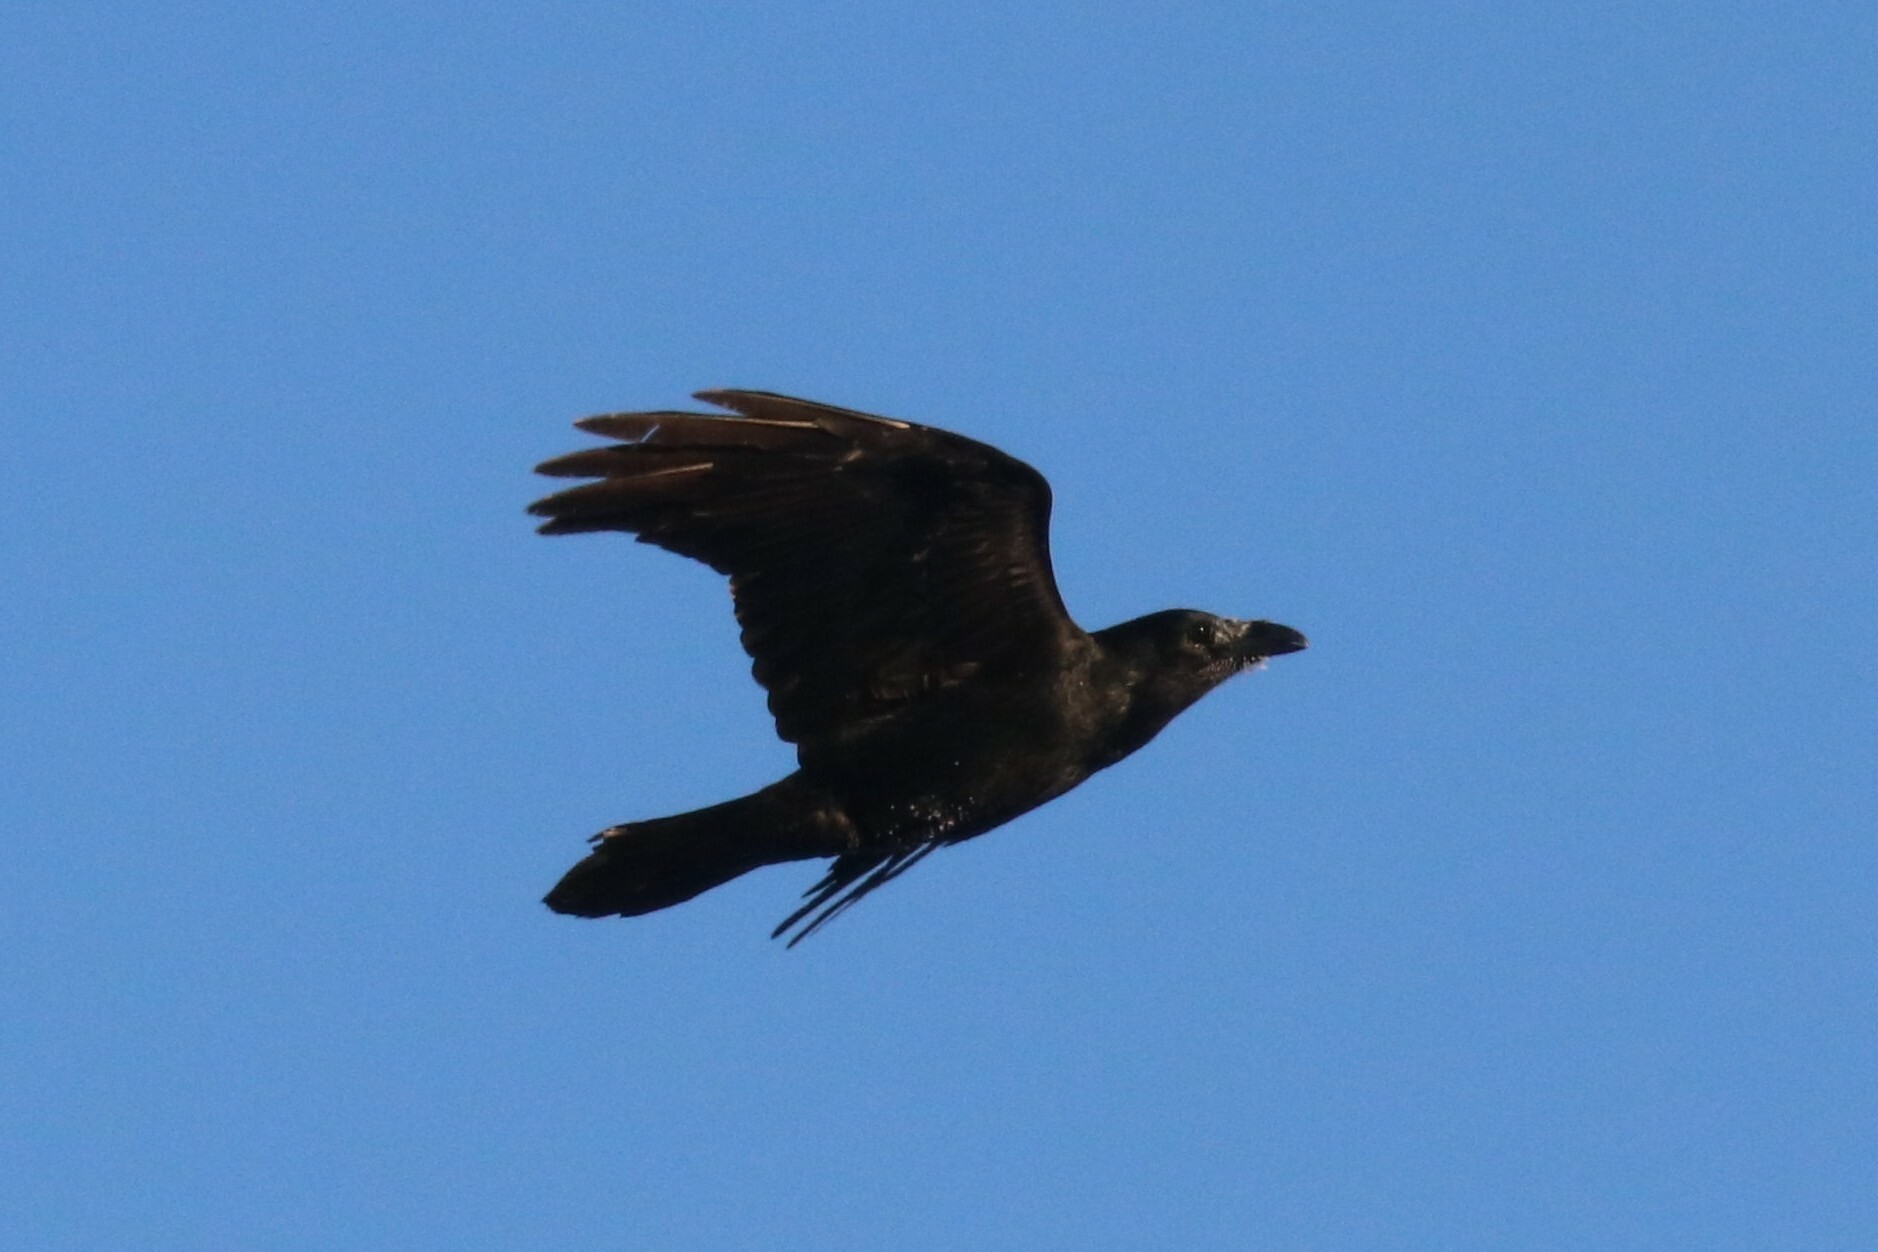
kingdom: Animalia
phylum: Chordata
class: Aves
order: Passeriformes
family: Corvidae
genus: Corvus
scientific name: Corvus corax
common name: Common raven
